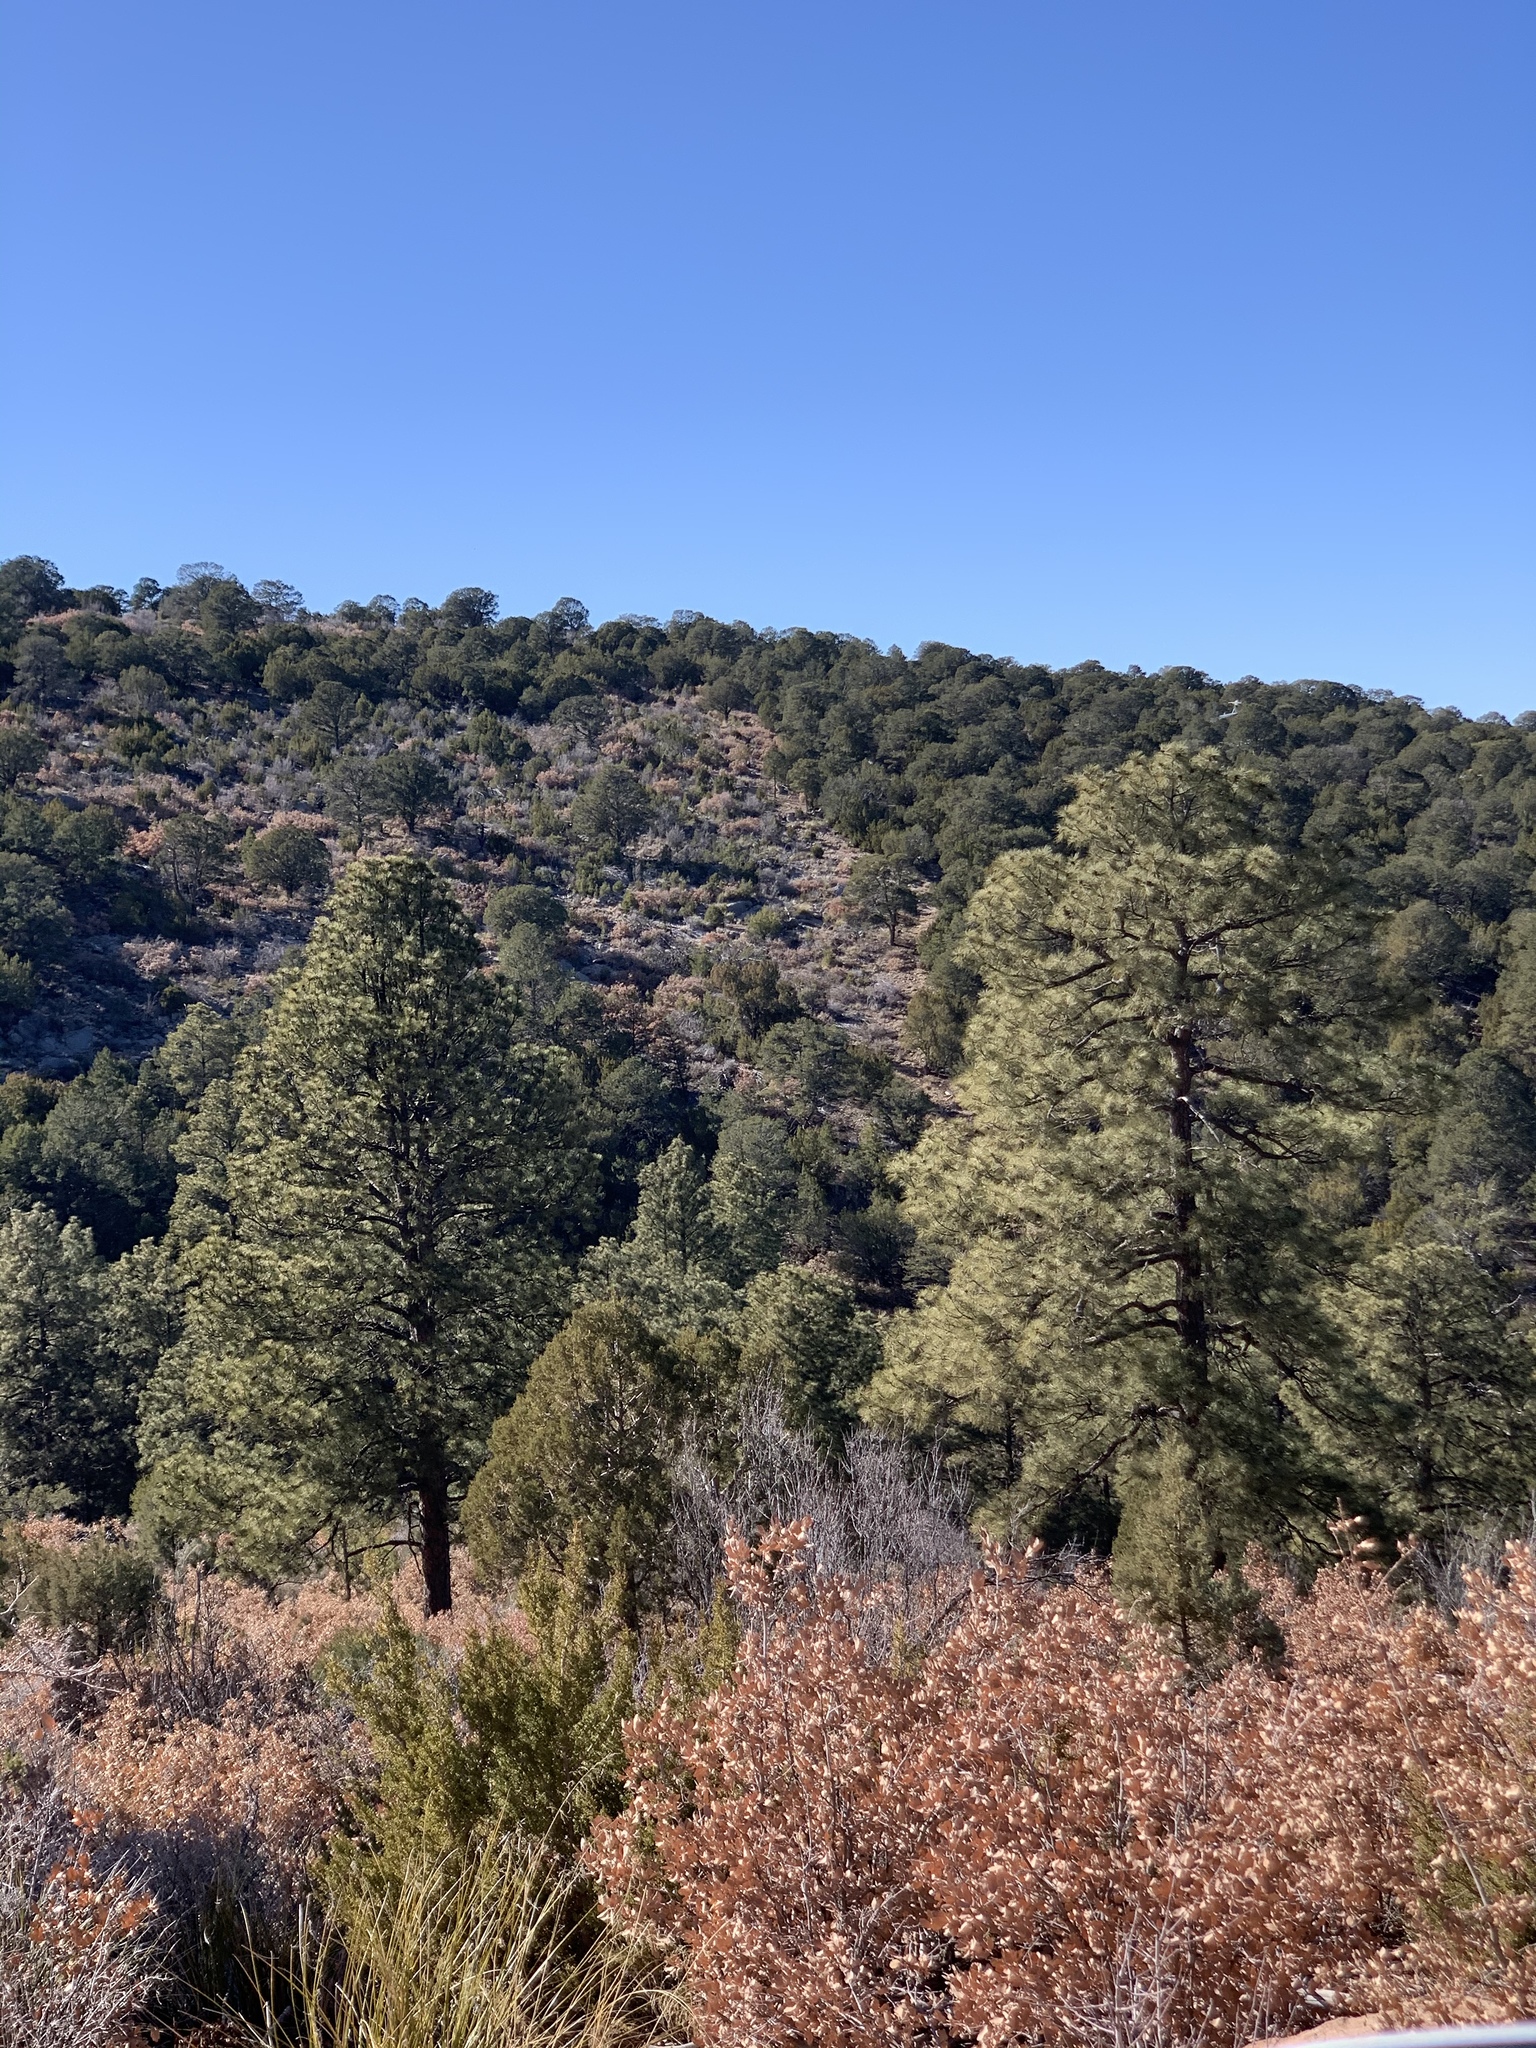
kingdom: Plantae
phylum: Tracheophyta
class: Pinopsida
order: Pinales
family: Pinaceae
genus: Pinus
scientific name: Pinus ponderosa
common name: Western yellow-pine
